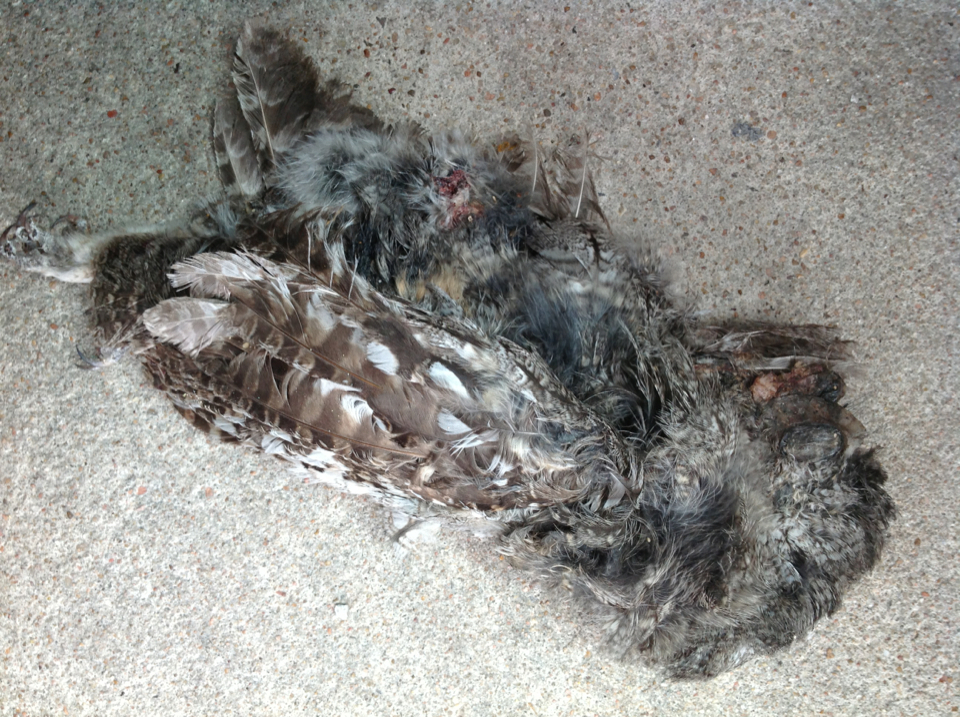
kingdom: Animalia
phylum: Chordata
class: Aves
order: Strigiformes
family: Strigidae
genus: Megascops
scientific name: Megascops asio
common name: Eastern screech-owl
